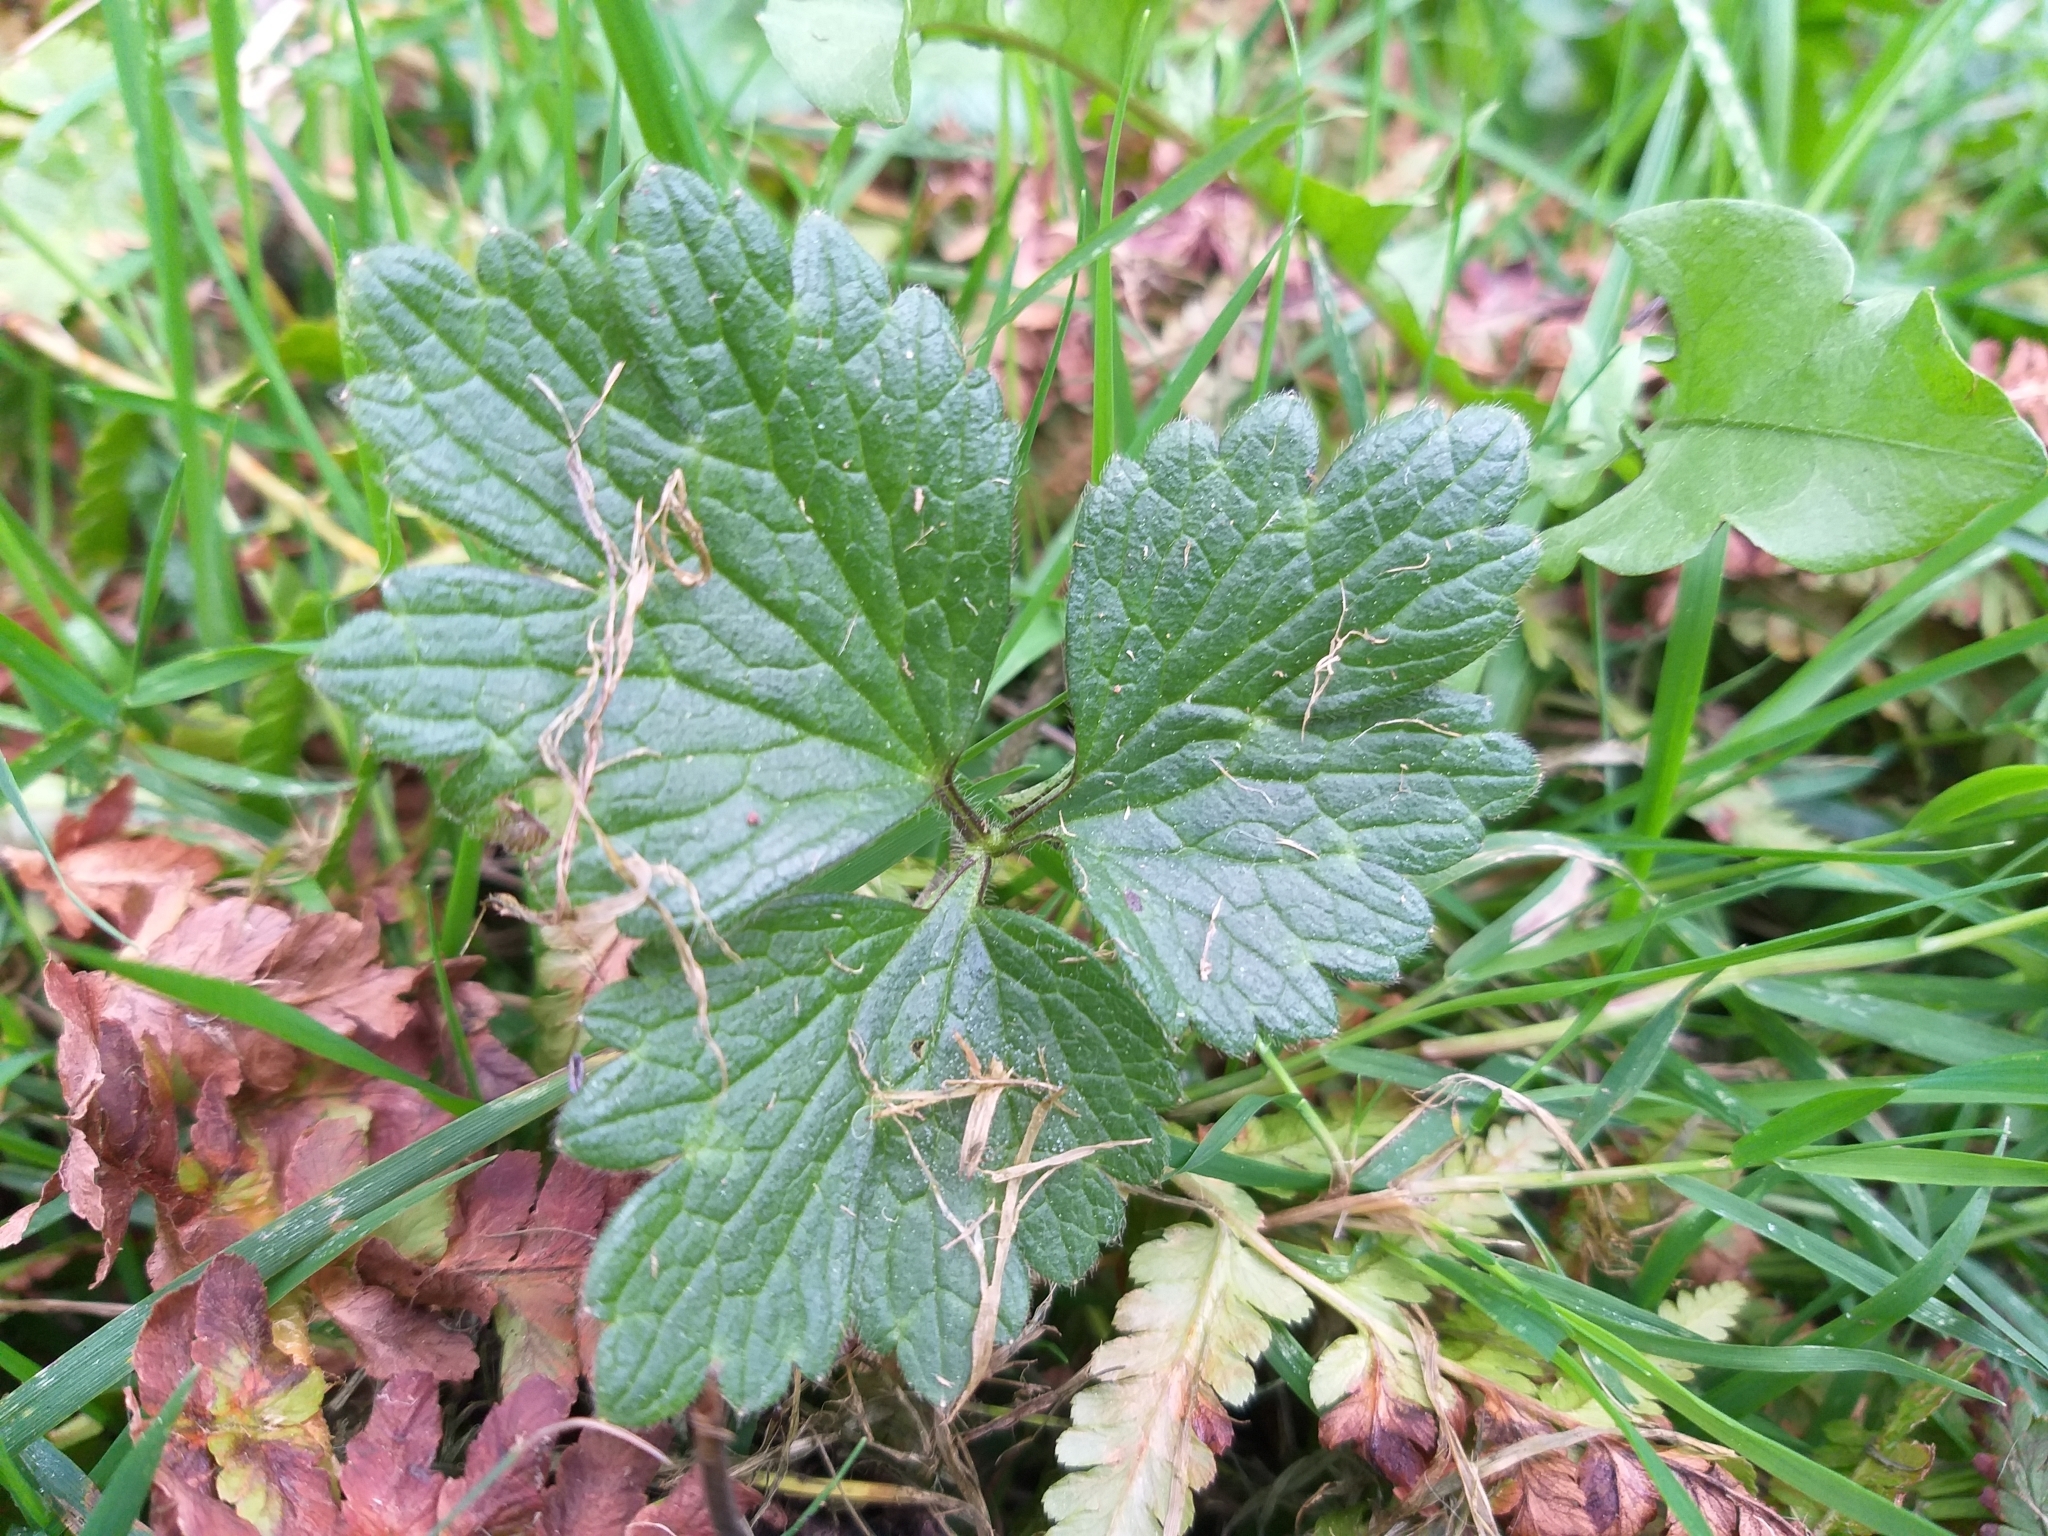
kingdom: Plantae
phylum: Tracheophyta
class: Magnoliopsida
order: Ranunculales
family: Ranunculaceae
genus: Ranunculus
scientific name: Ranunculus repens
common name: Creeping buttercup
